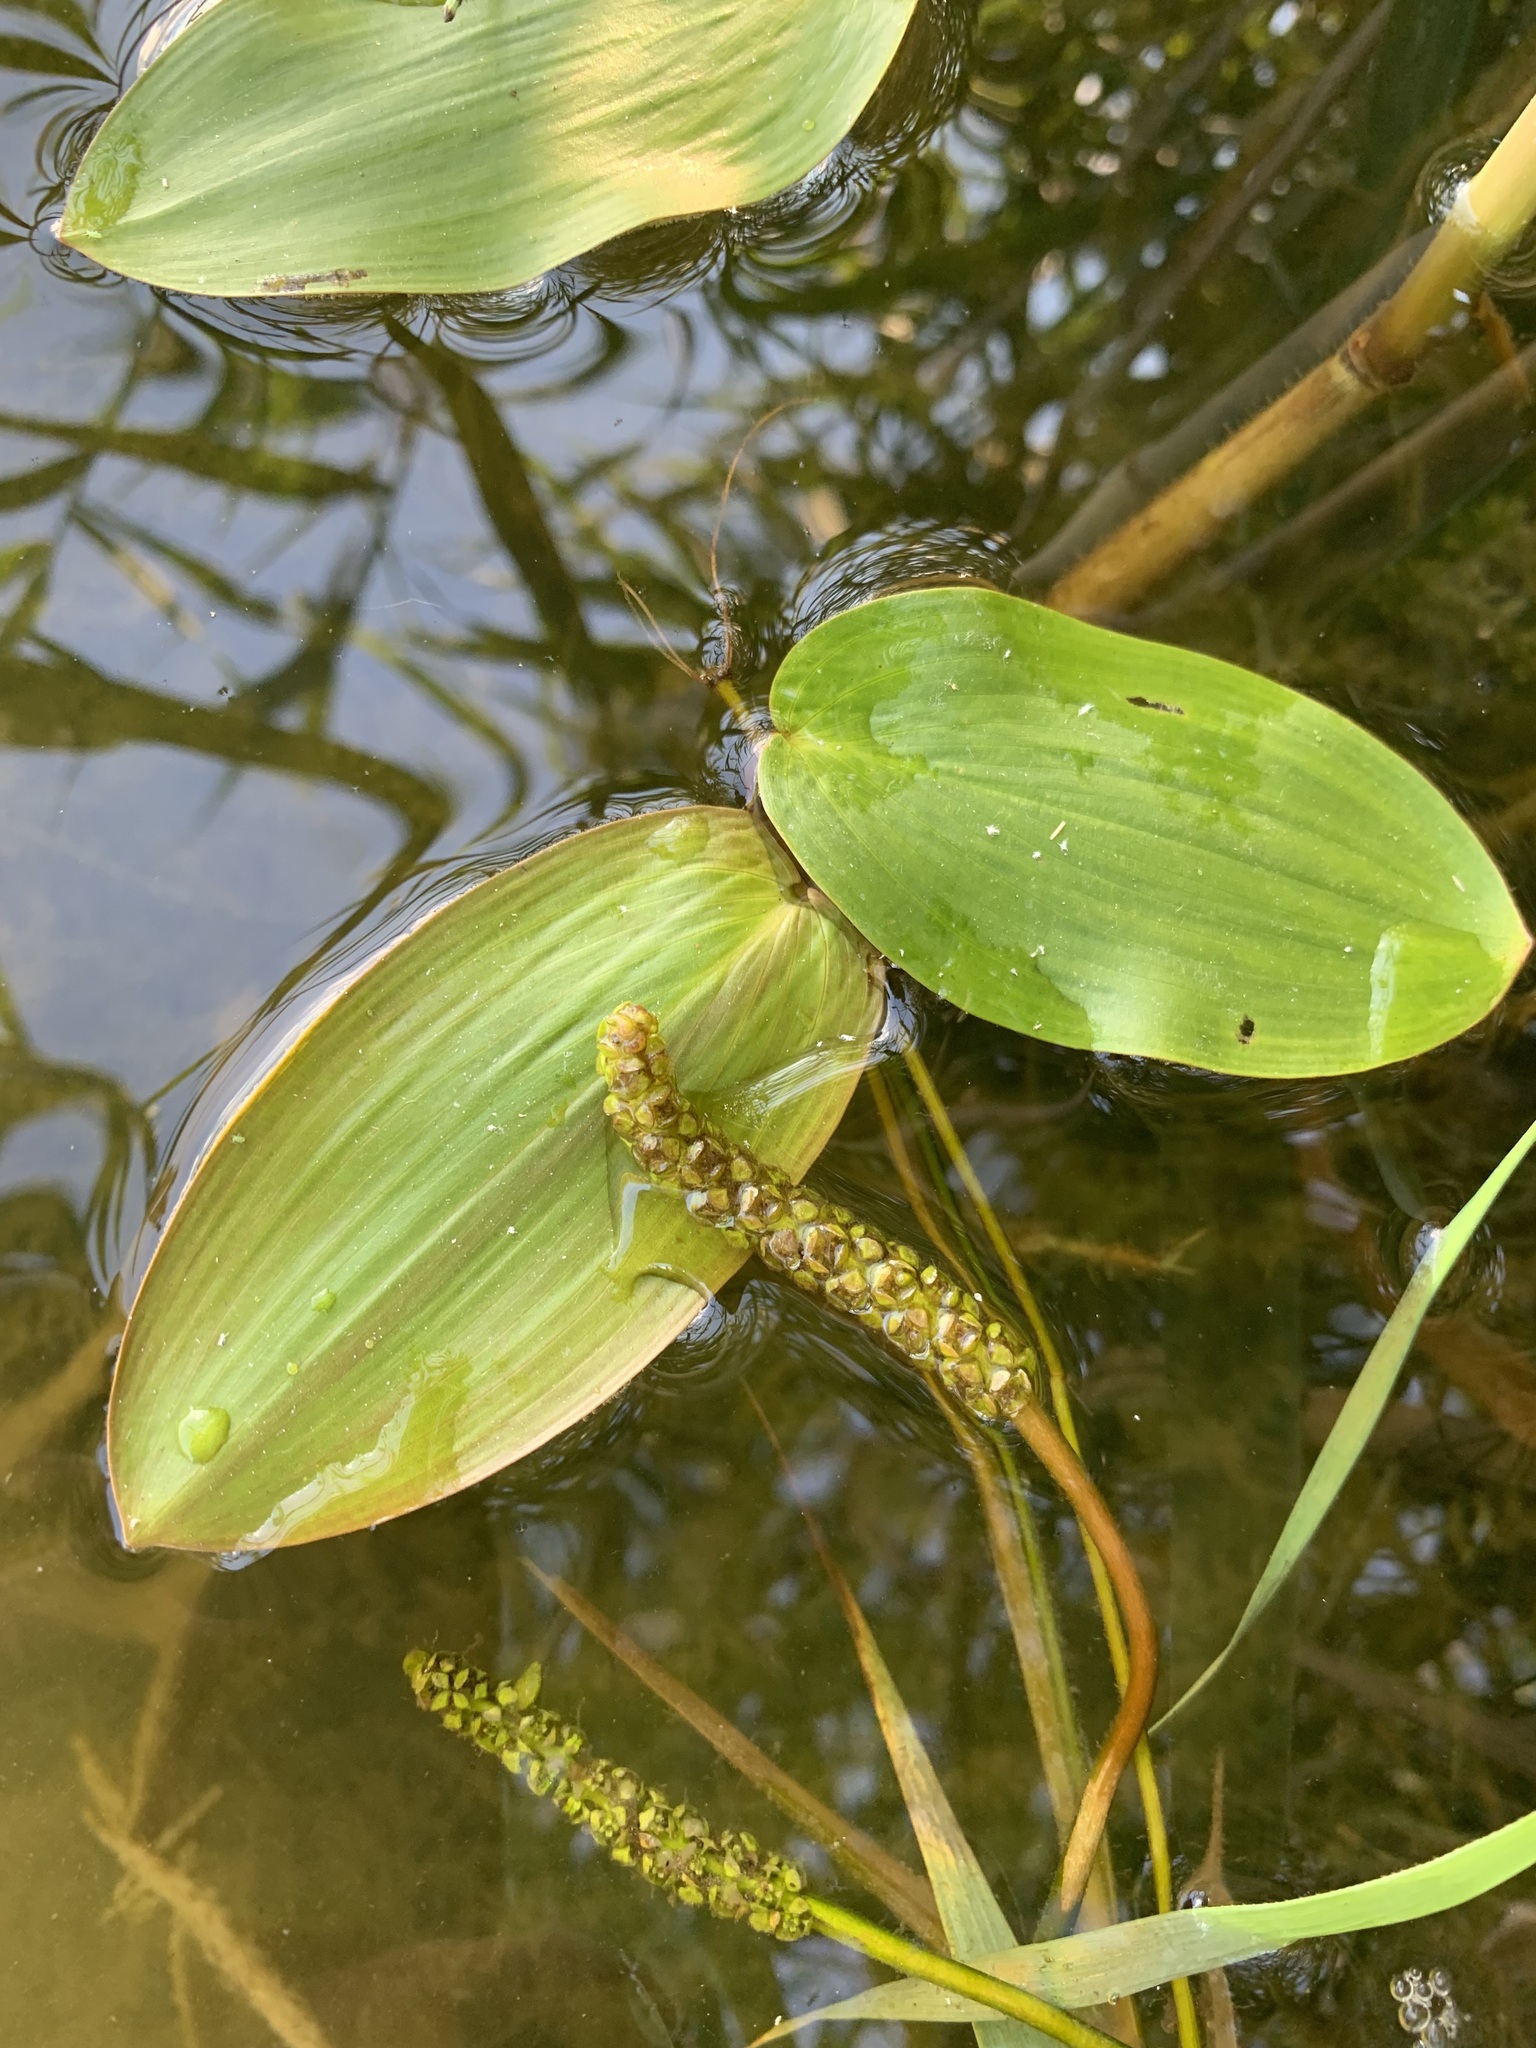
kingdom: Plantae
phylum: Tracheophyta
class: Liliopsida
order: Alismatales
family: Potamogetonaceae
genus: Potamogeton
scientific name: Potamogeton natans
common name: Broad-leaved pondweed
